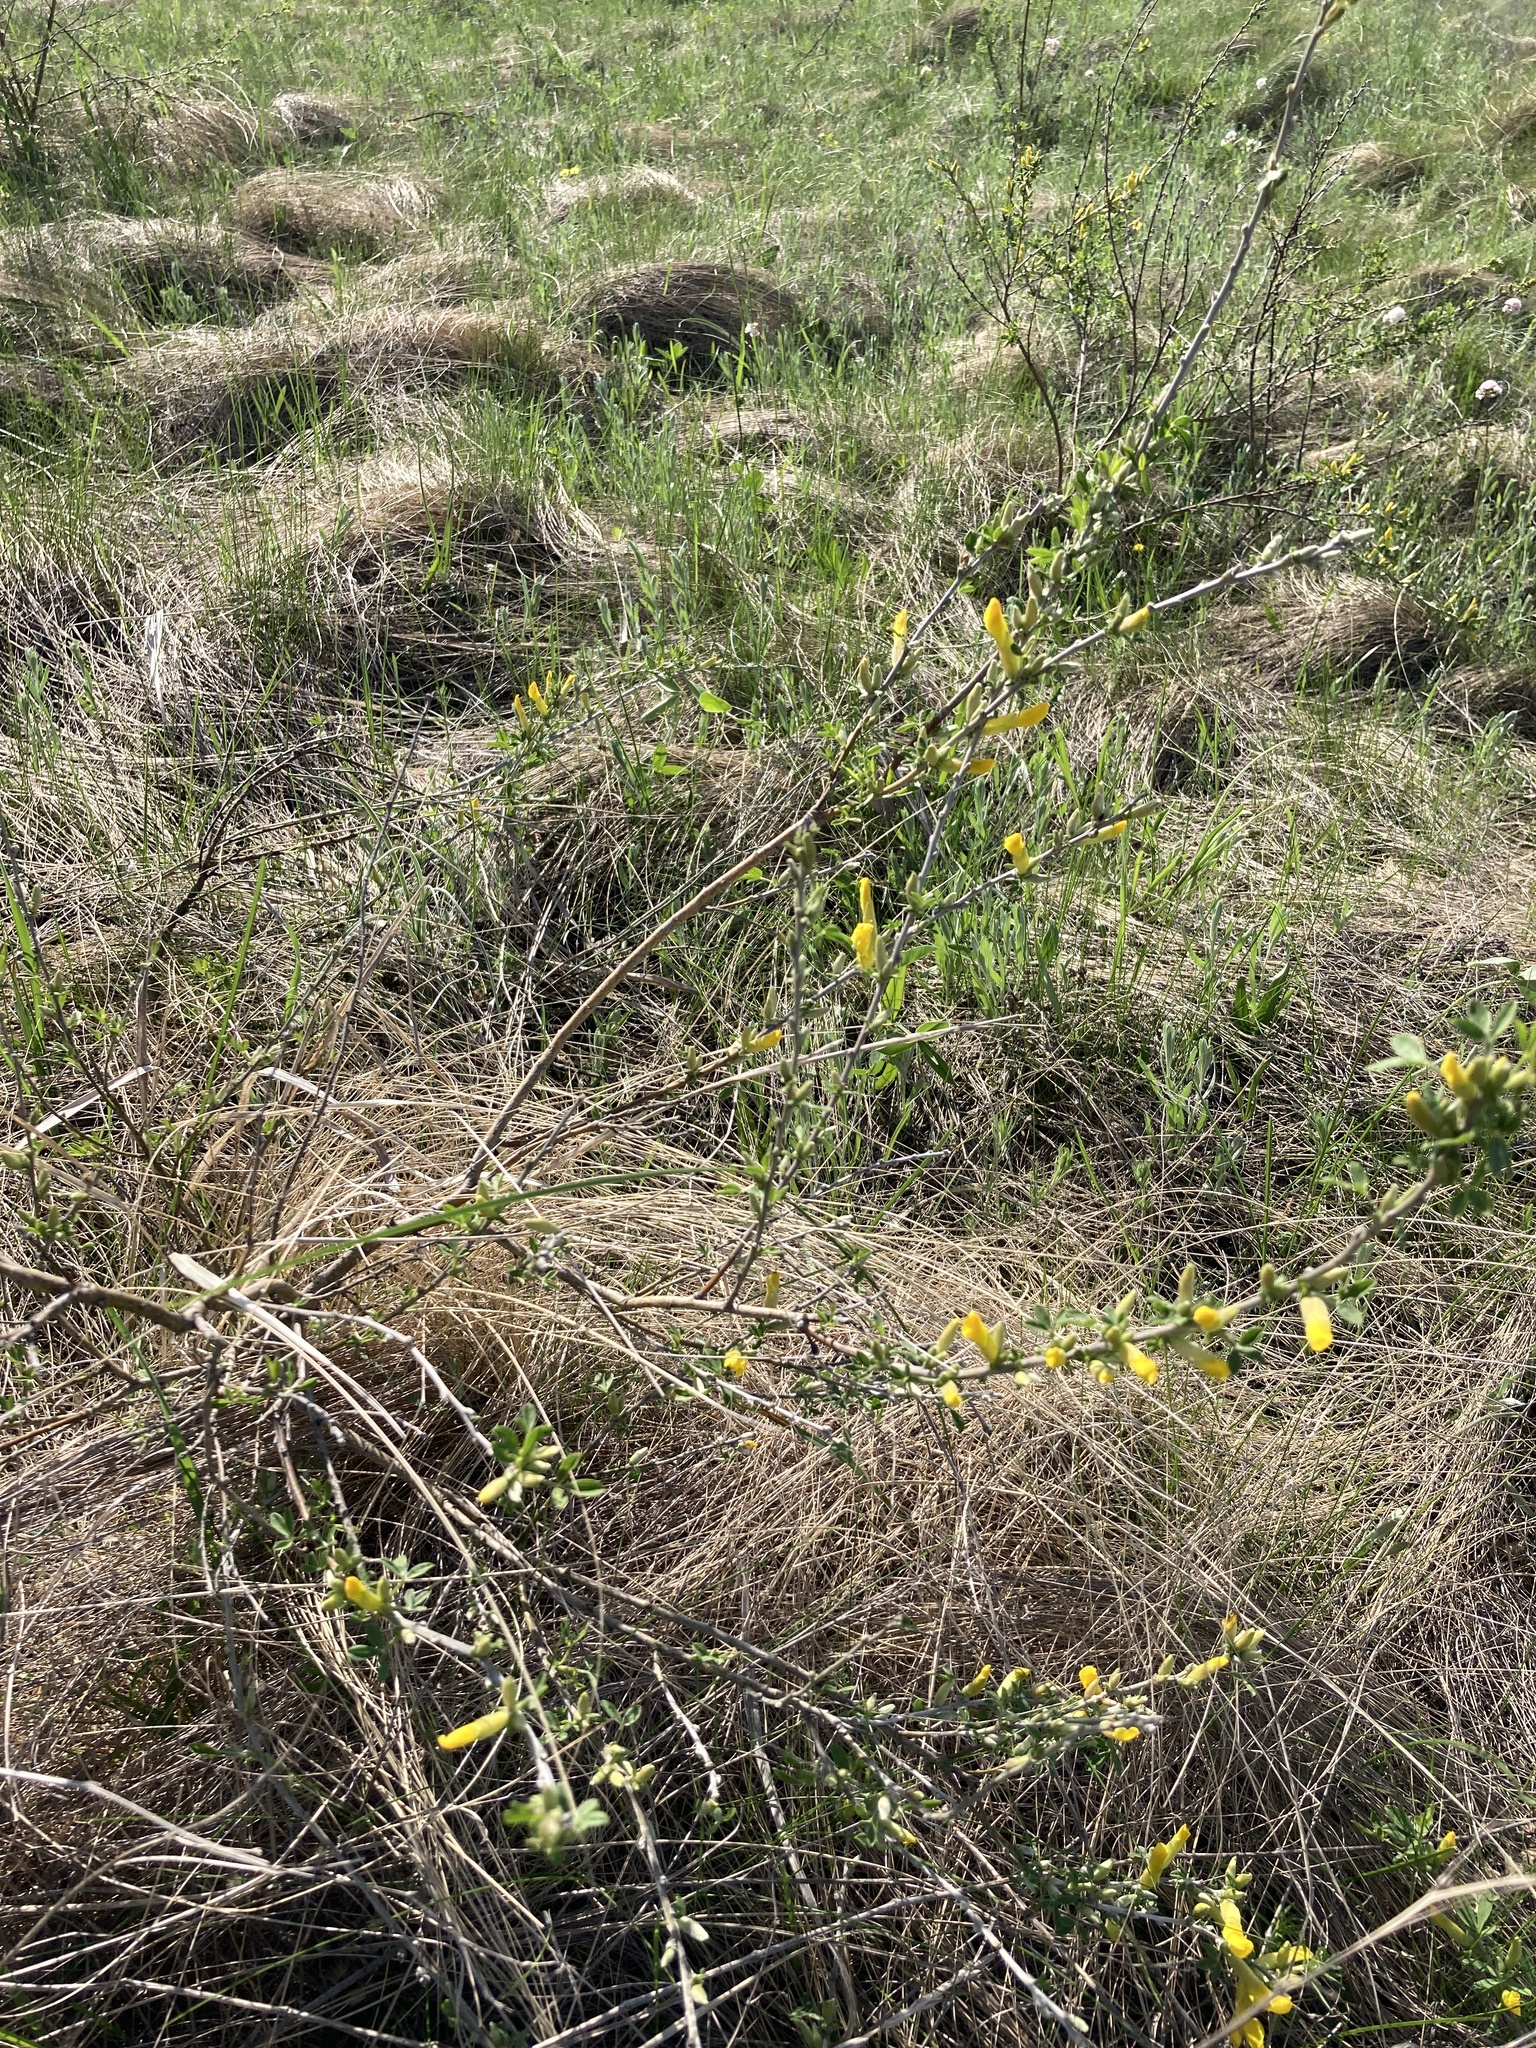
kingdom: Plantae
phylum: Tracheophyta
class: Magnoliopsida
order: Fabales
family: Fabaceae
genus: Chamaecytisus
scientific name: Chamaecytisus ruthenicus
